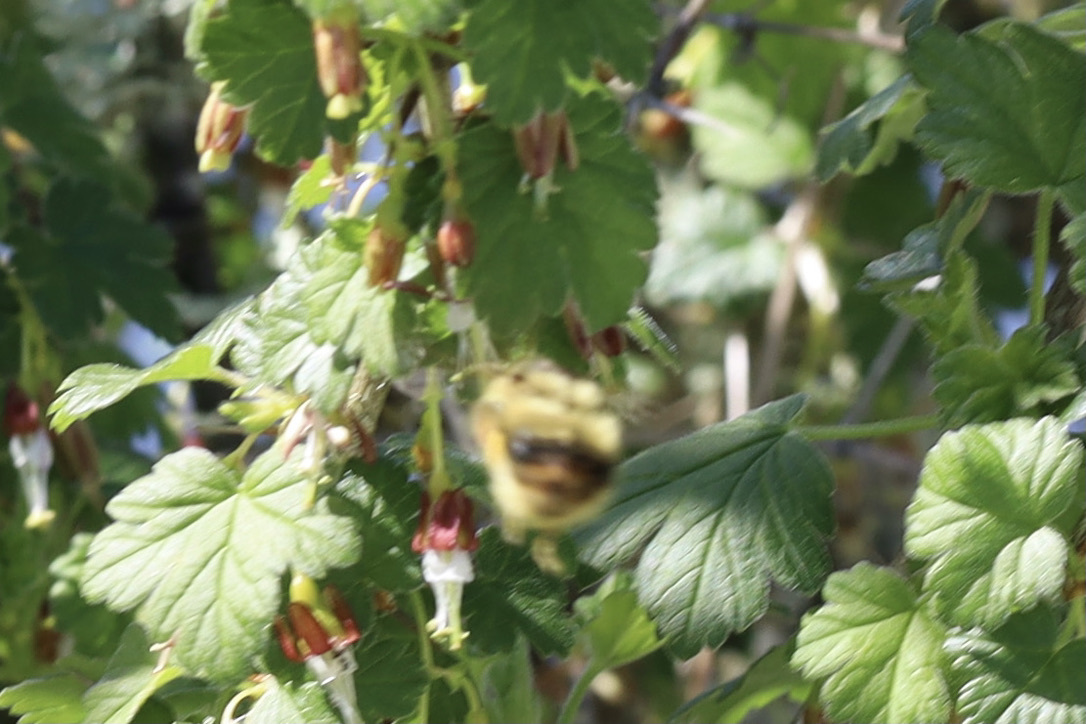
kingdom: Animalia
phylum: Arthropoda
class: Insecta
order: Hymenoptera
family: Apidae
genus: Bombus
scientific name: Bombus mixtus
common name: Fuzzy-horned bumble bee
